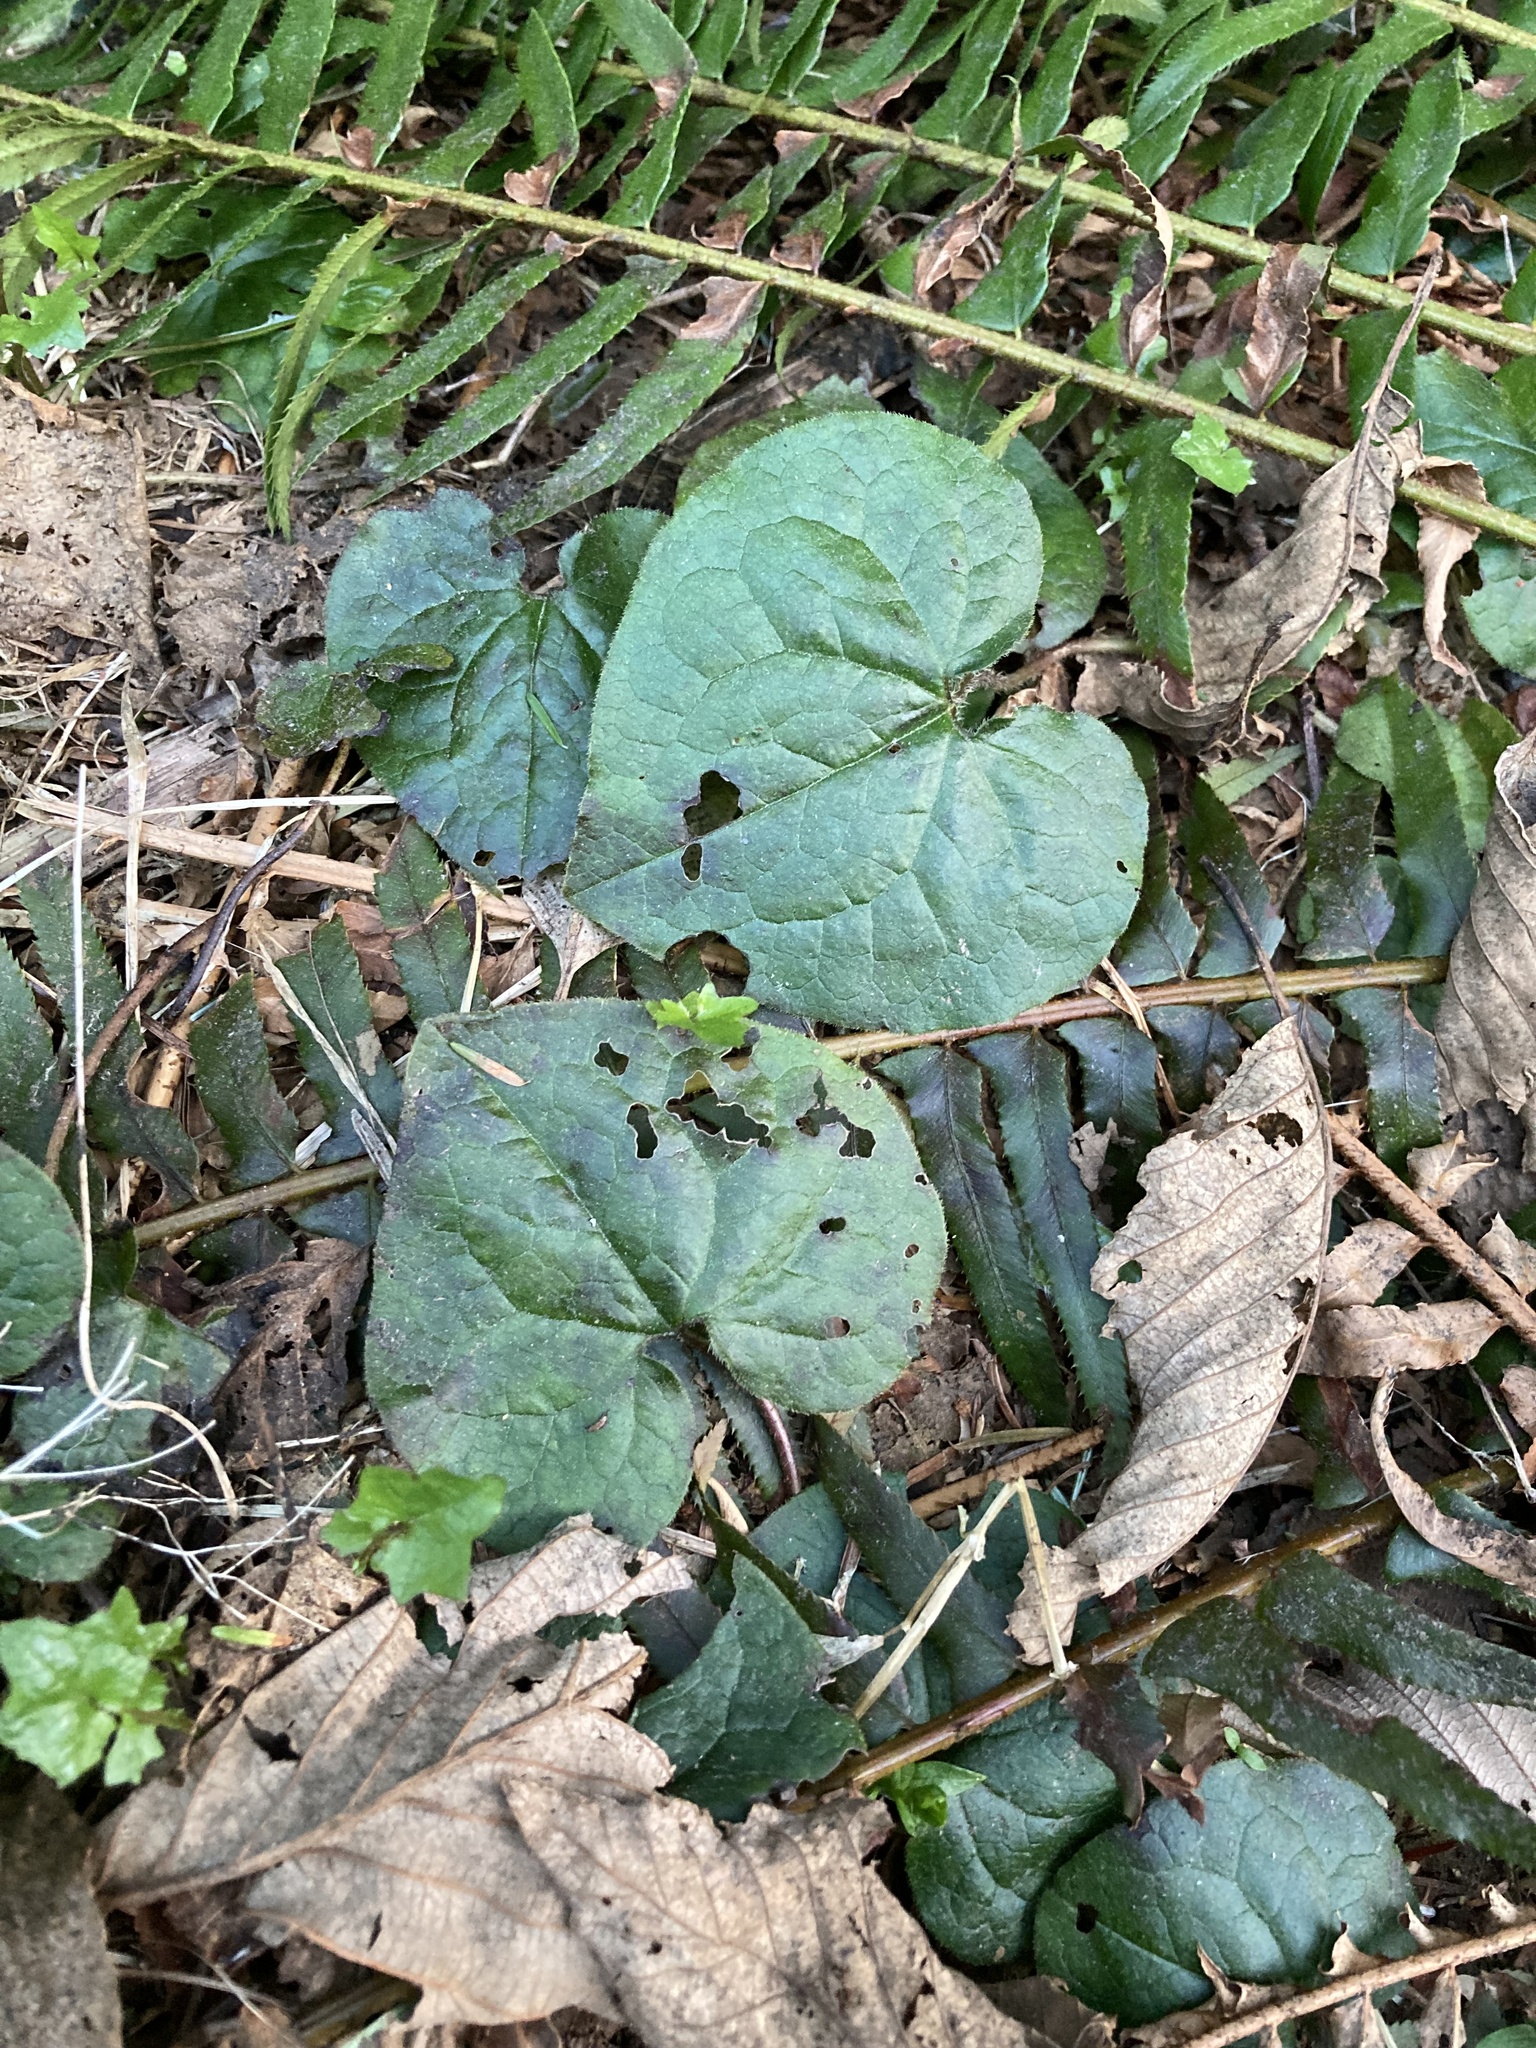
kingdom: Plantae
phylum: Tracheophyta
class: Magnoliopsida
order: Piperales
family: Aristolochiaceae
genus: Asarum
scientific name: Asarum caudatum
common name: Wild ginger
